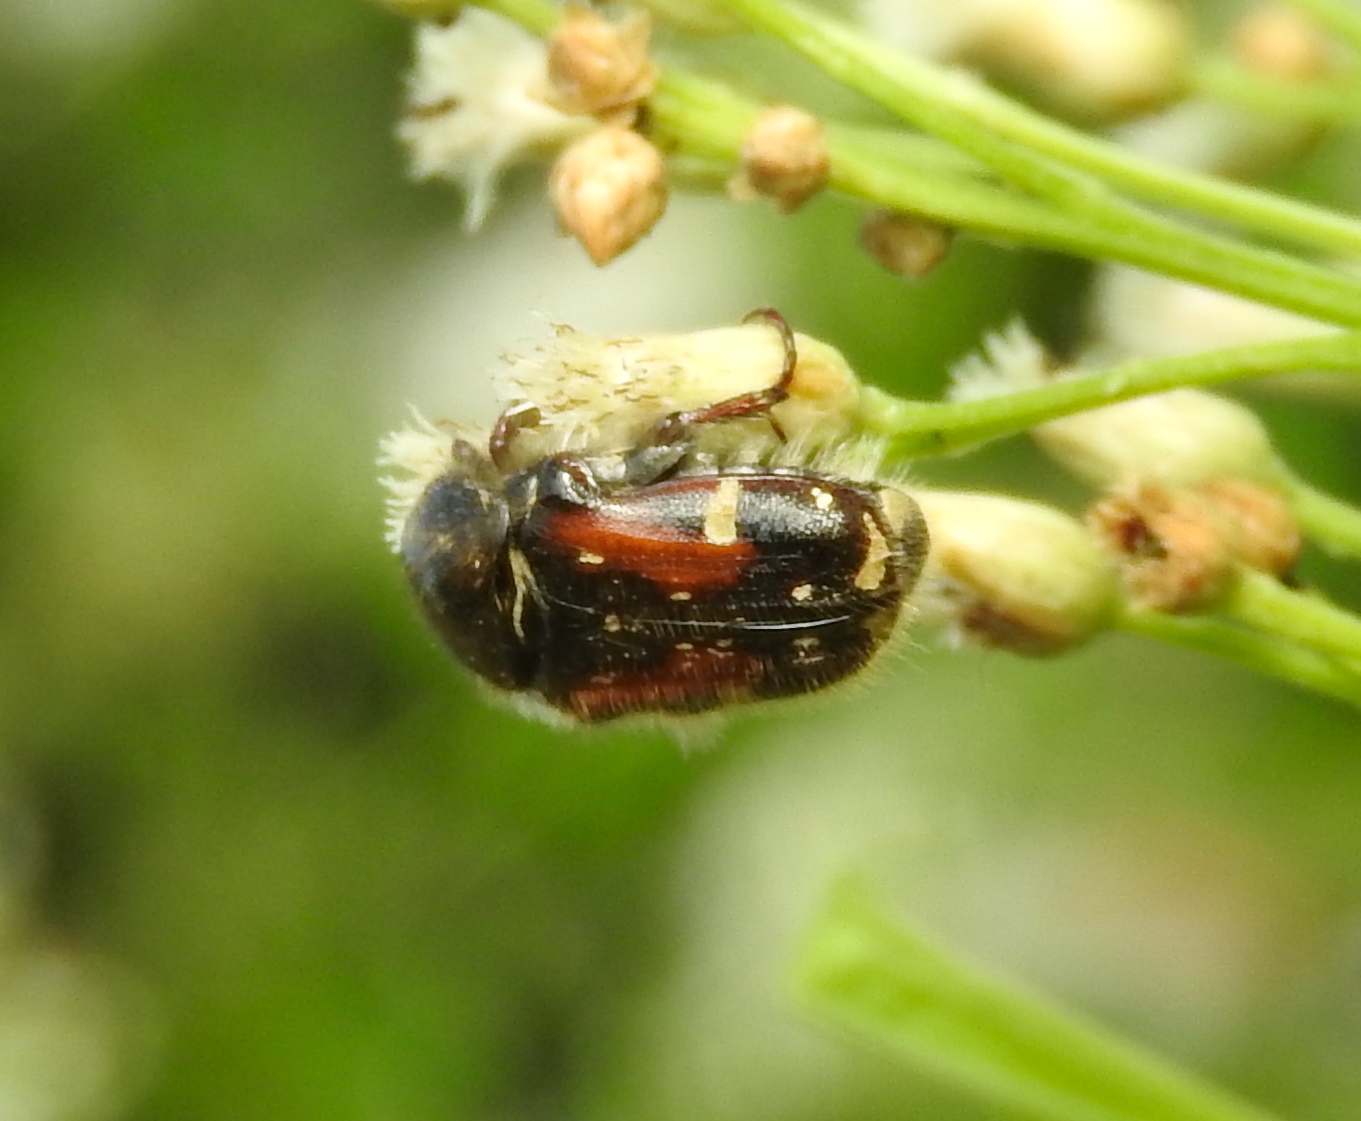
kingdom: Animalia
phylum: Arthropoda
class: Insecta
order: Coleoptera
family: Scarabaeidae
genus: Euphoria
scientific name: Euphoria pulchella
